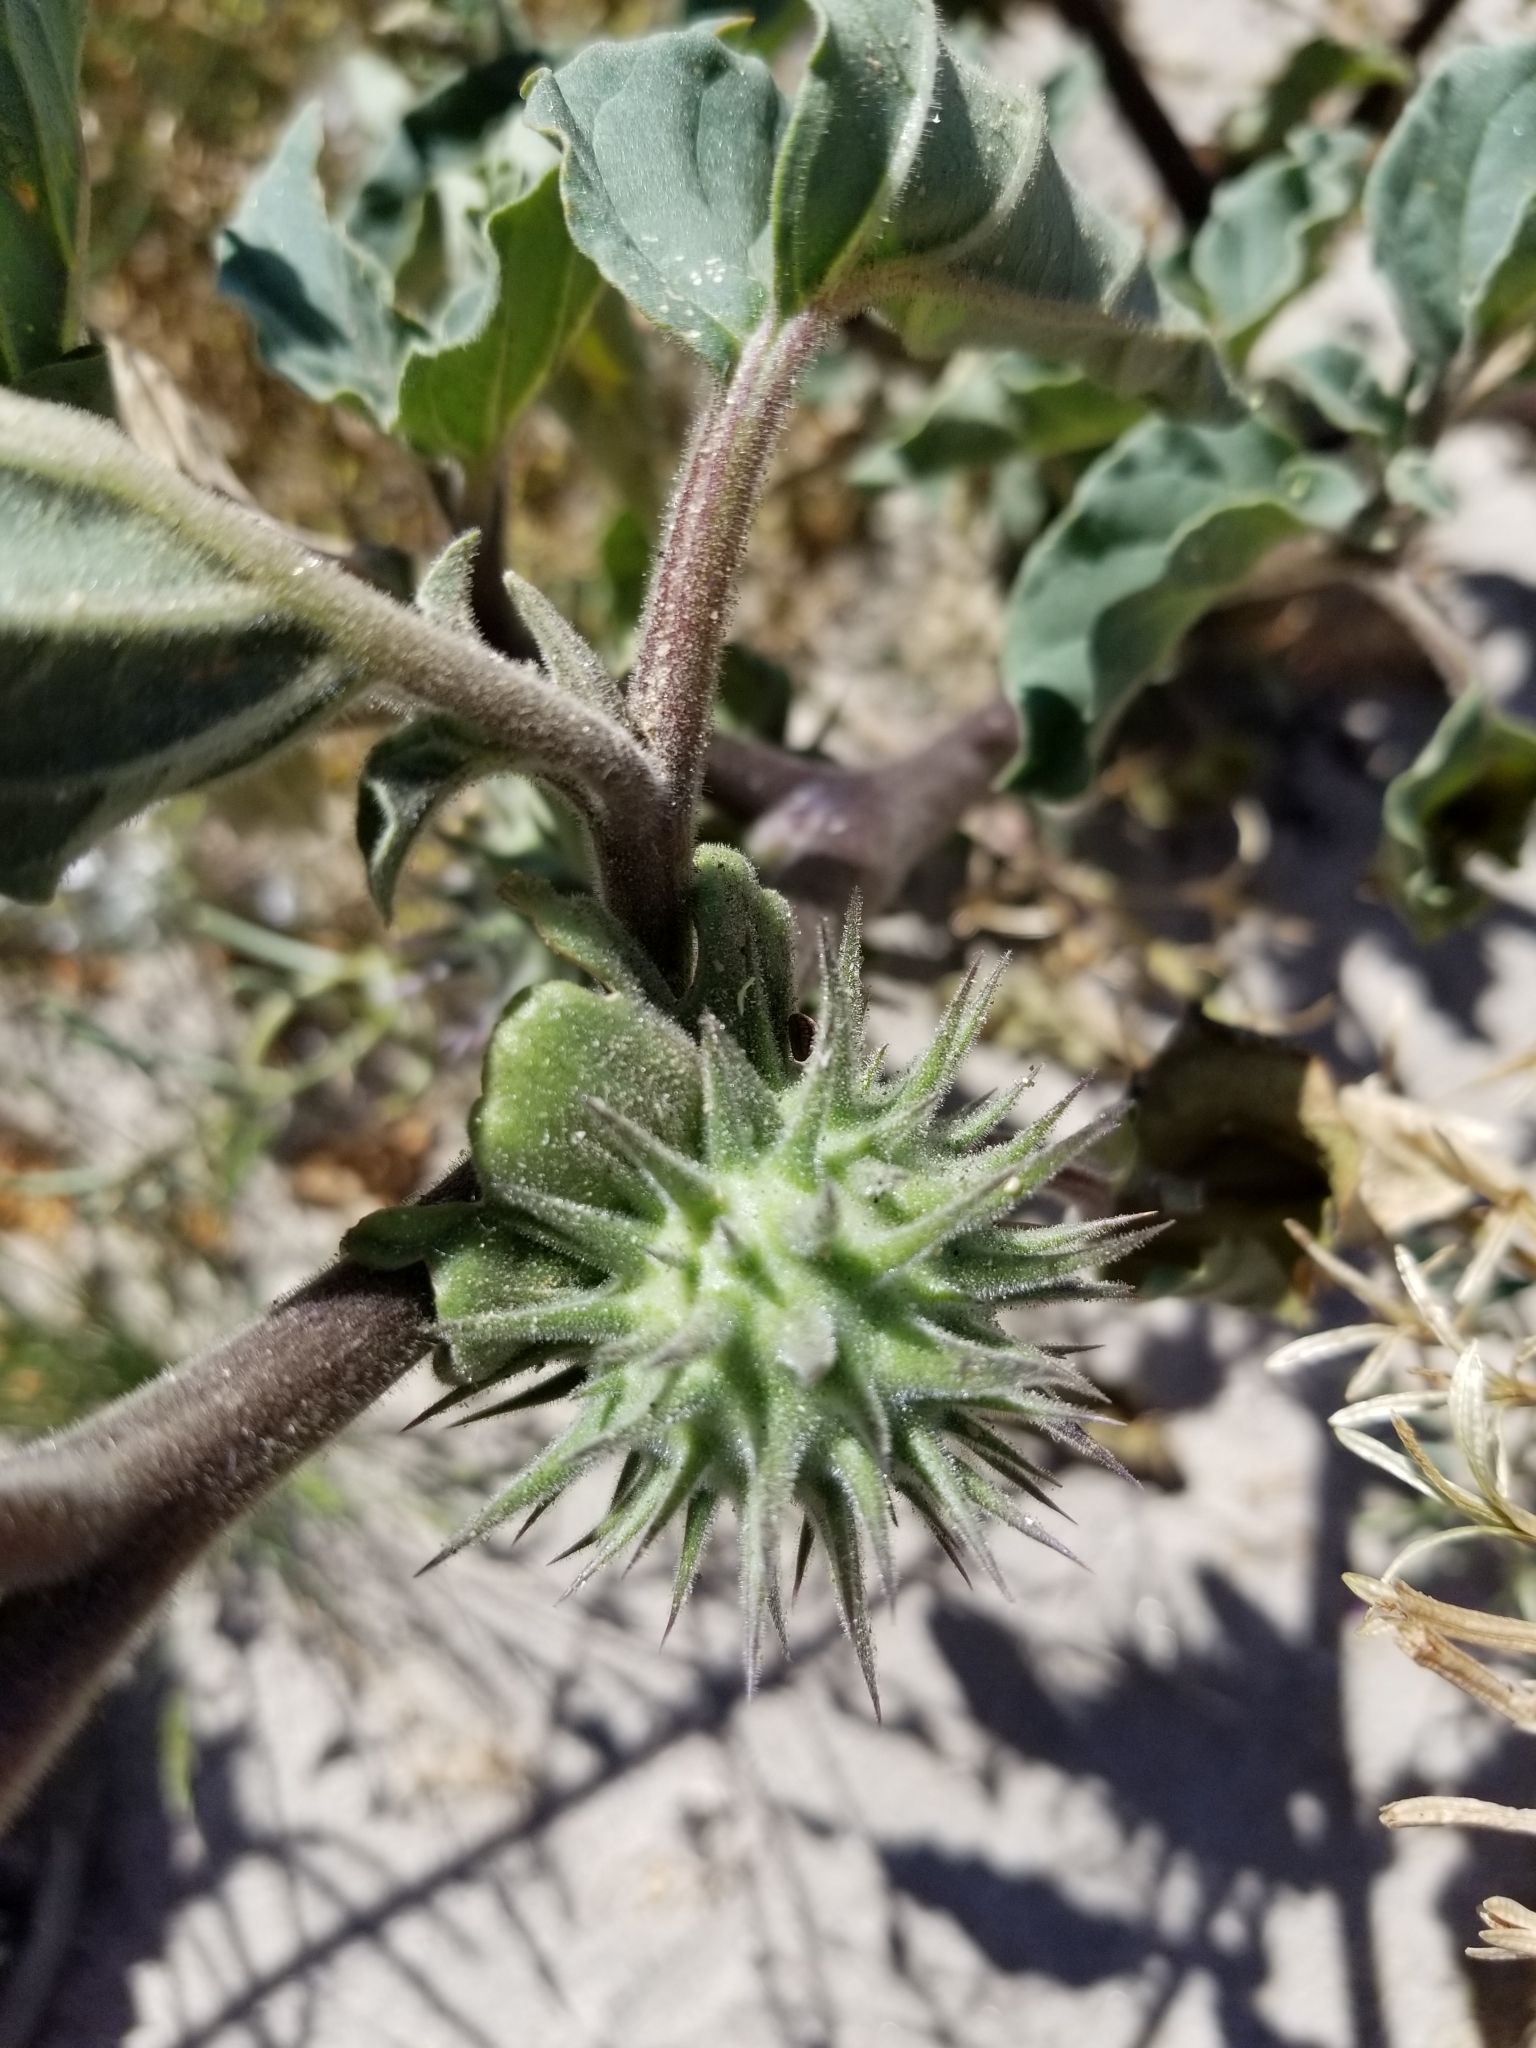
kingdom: Plantae
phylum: Tracheophyta
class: Magnoliopsida
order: Solanales
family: Solanaceae
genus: Datura
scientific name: Datura discolor
